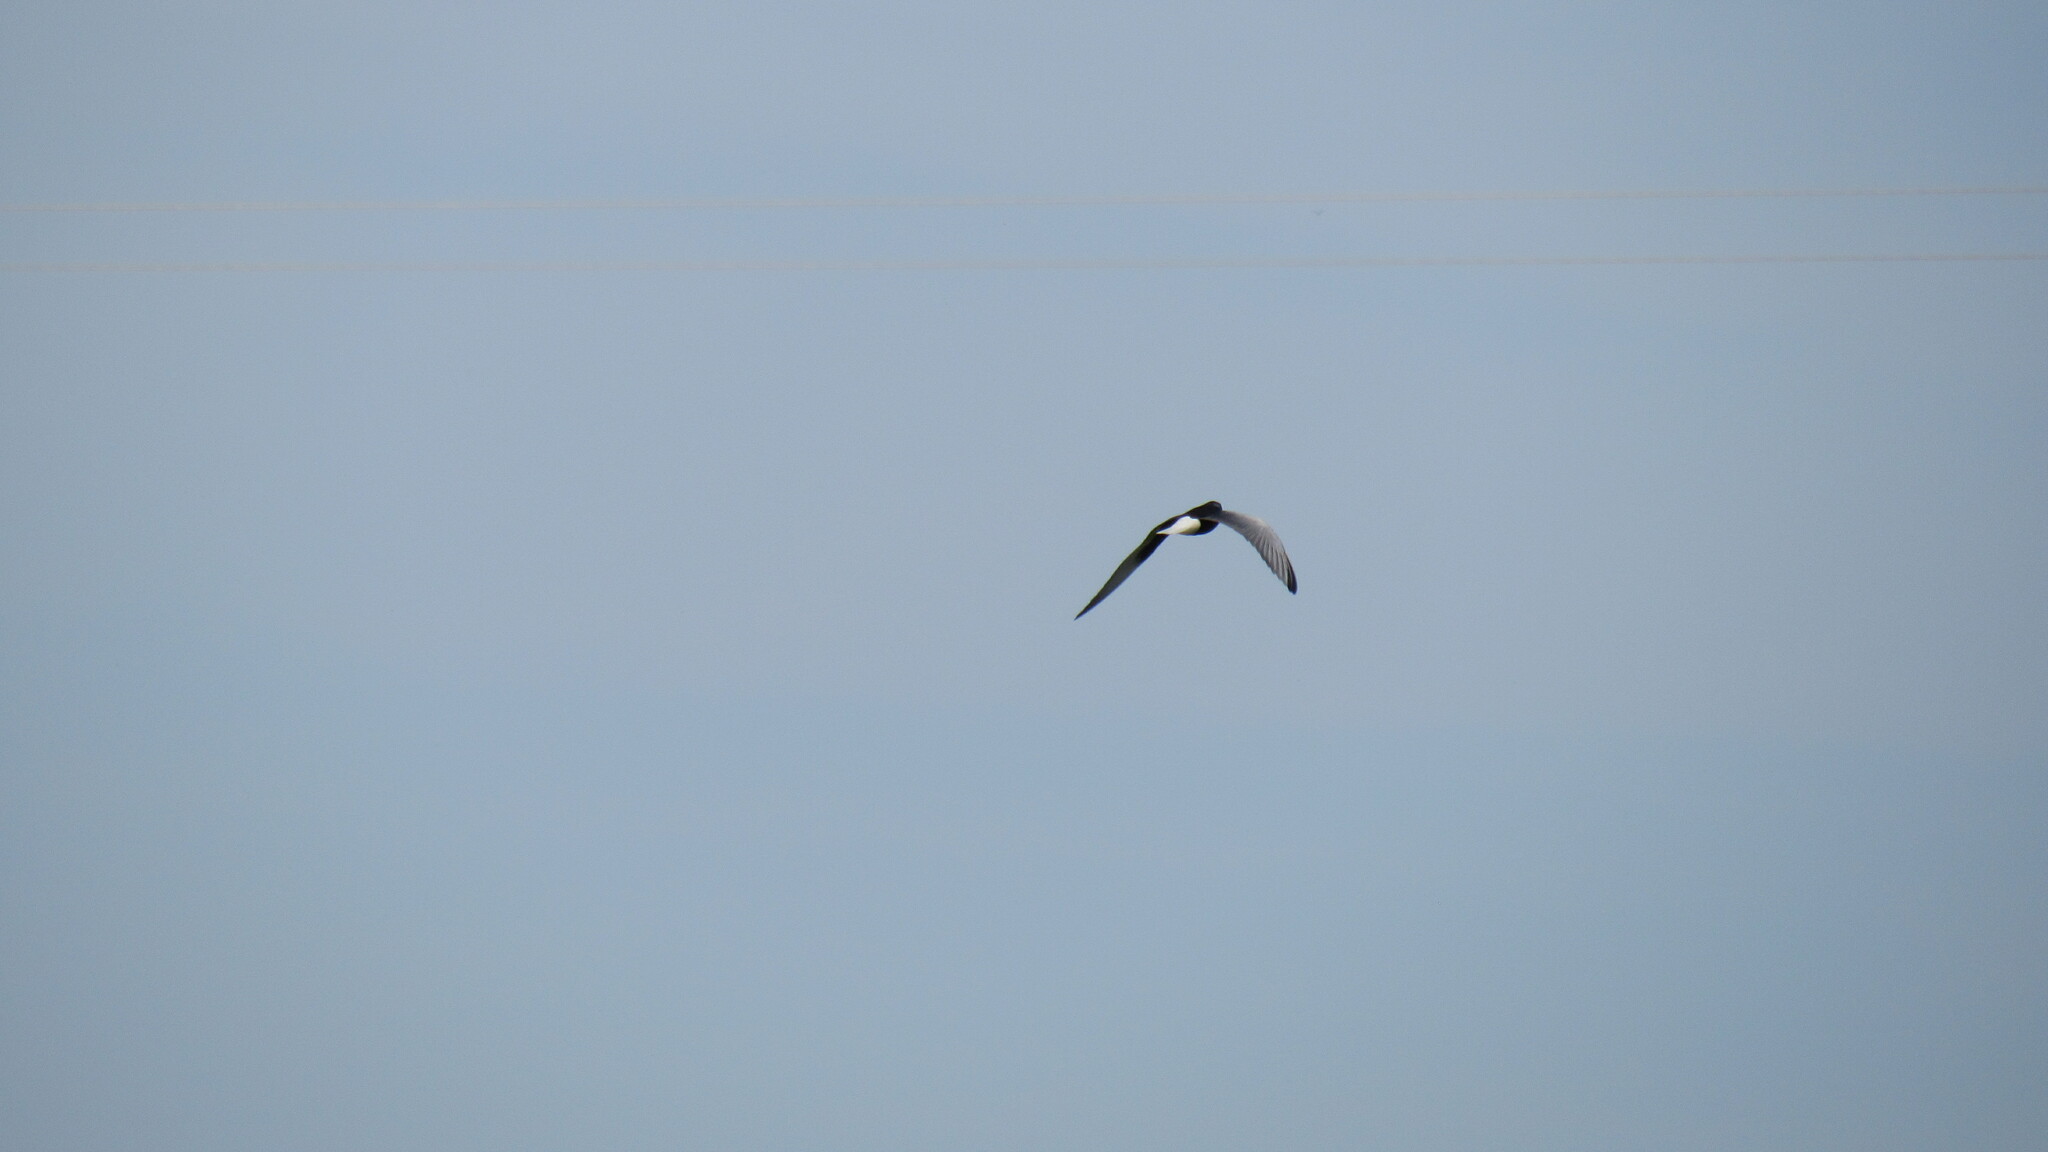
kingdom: Animalia
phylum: Chordata
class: Aves
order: Charadriiformes
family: Laridae
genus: Chlidonias
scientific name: Chlidonias leucopterus
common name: White-winged tern
